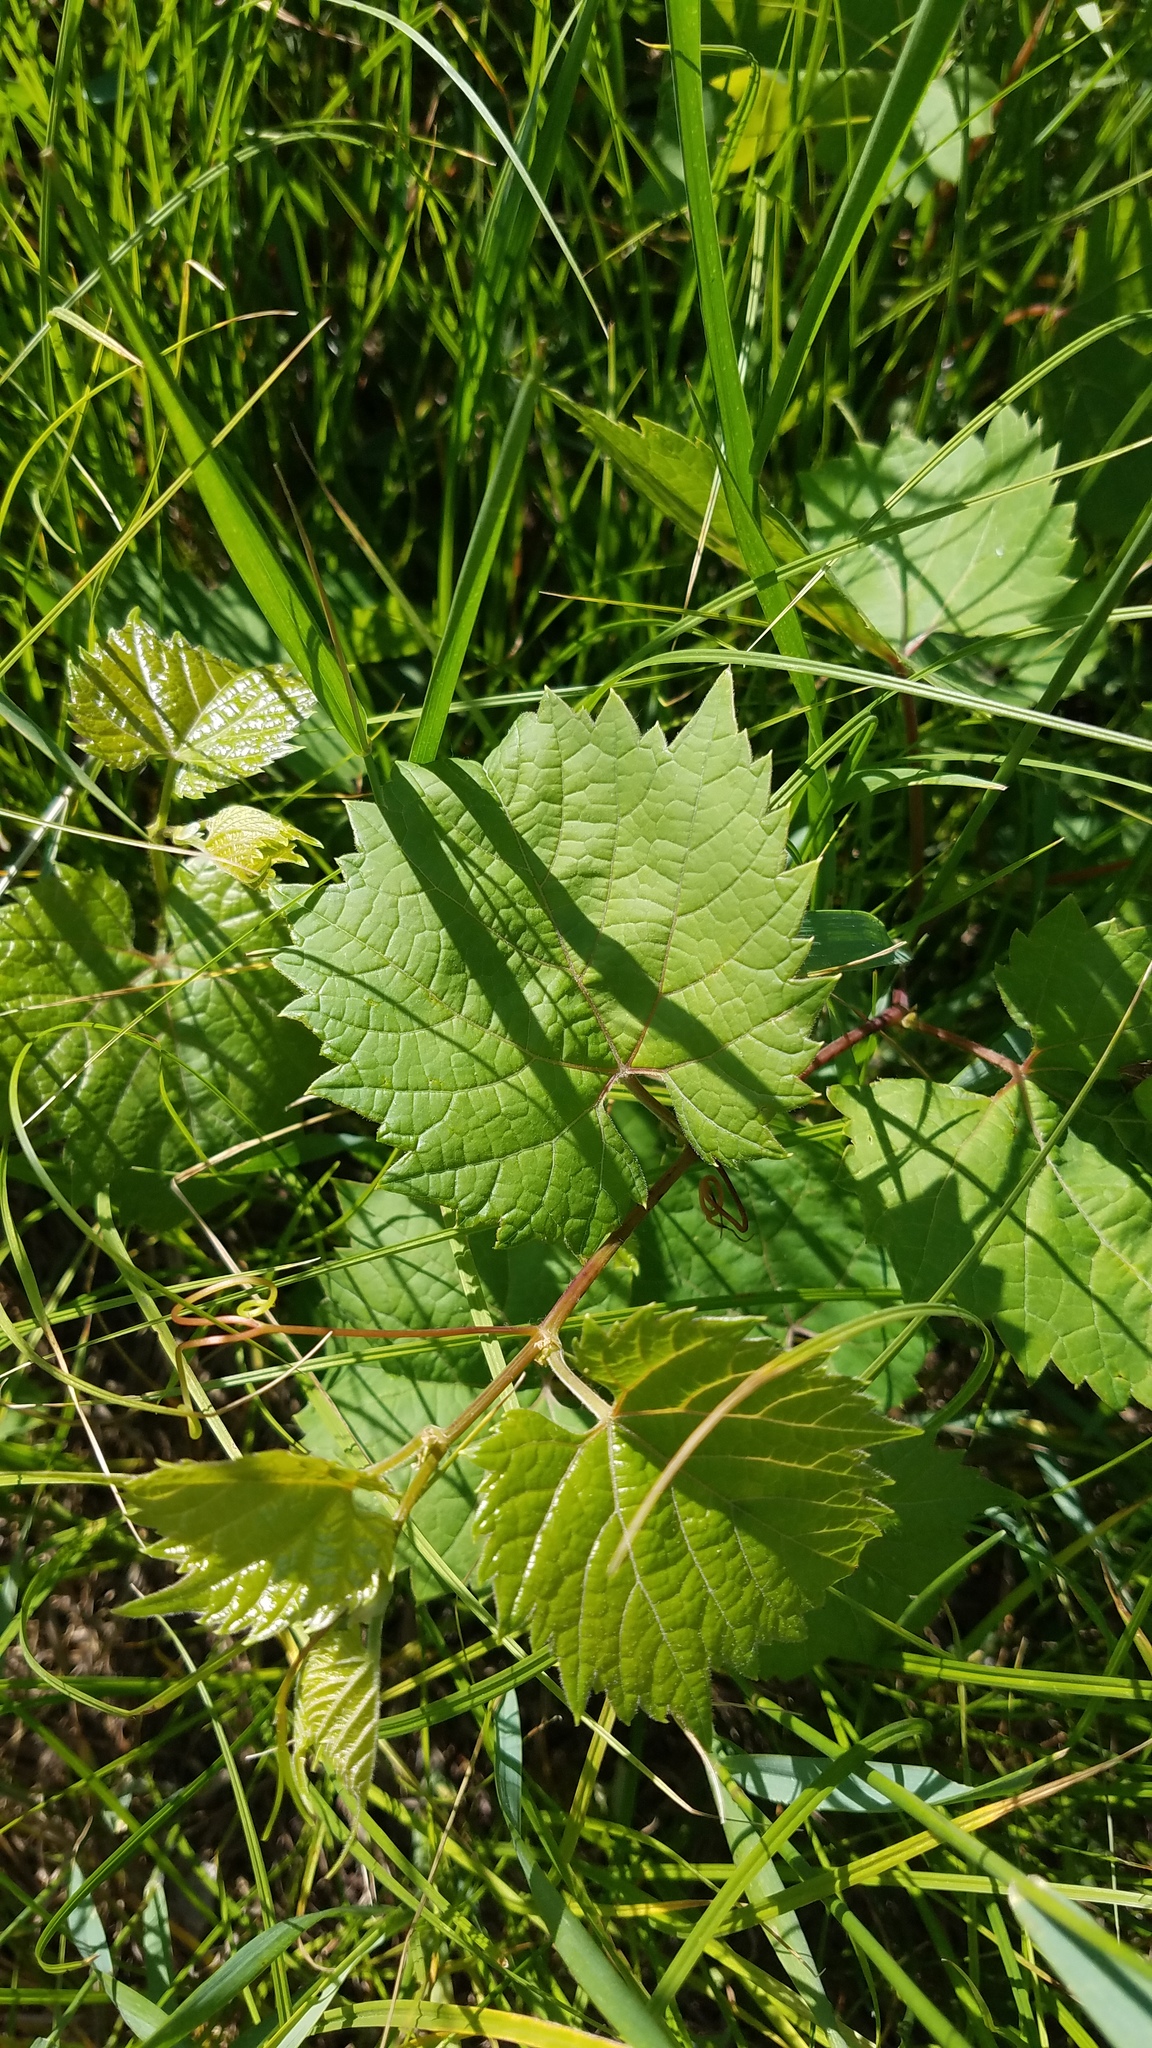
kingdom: Plantae
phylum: Tracheophyta
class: Magnoliopsida
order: Vitales
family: Vitaceae
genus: Vitis
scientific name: Vitis riparia
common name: Frost grape
